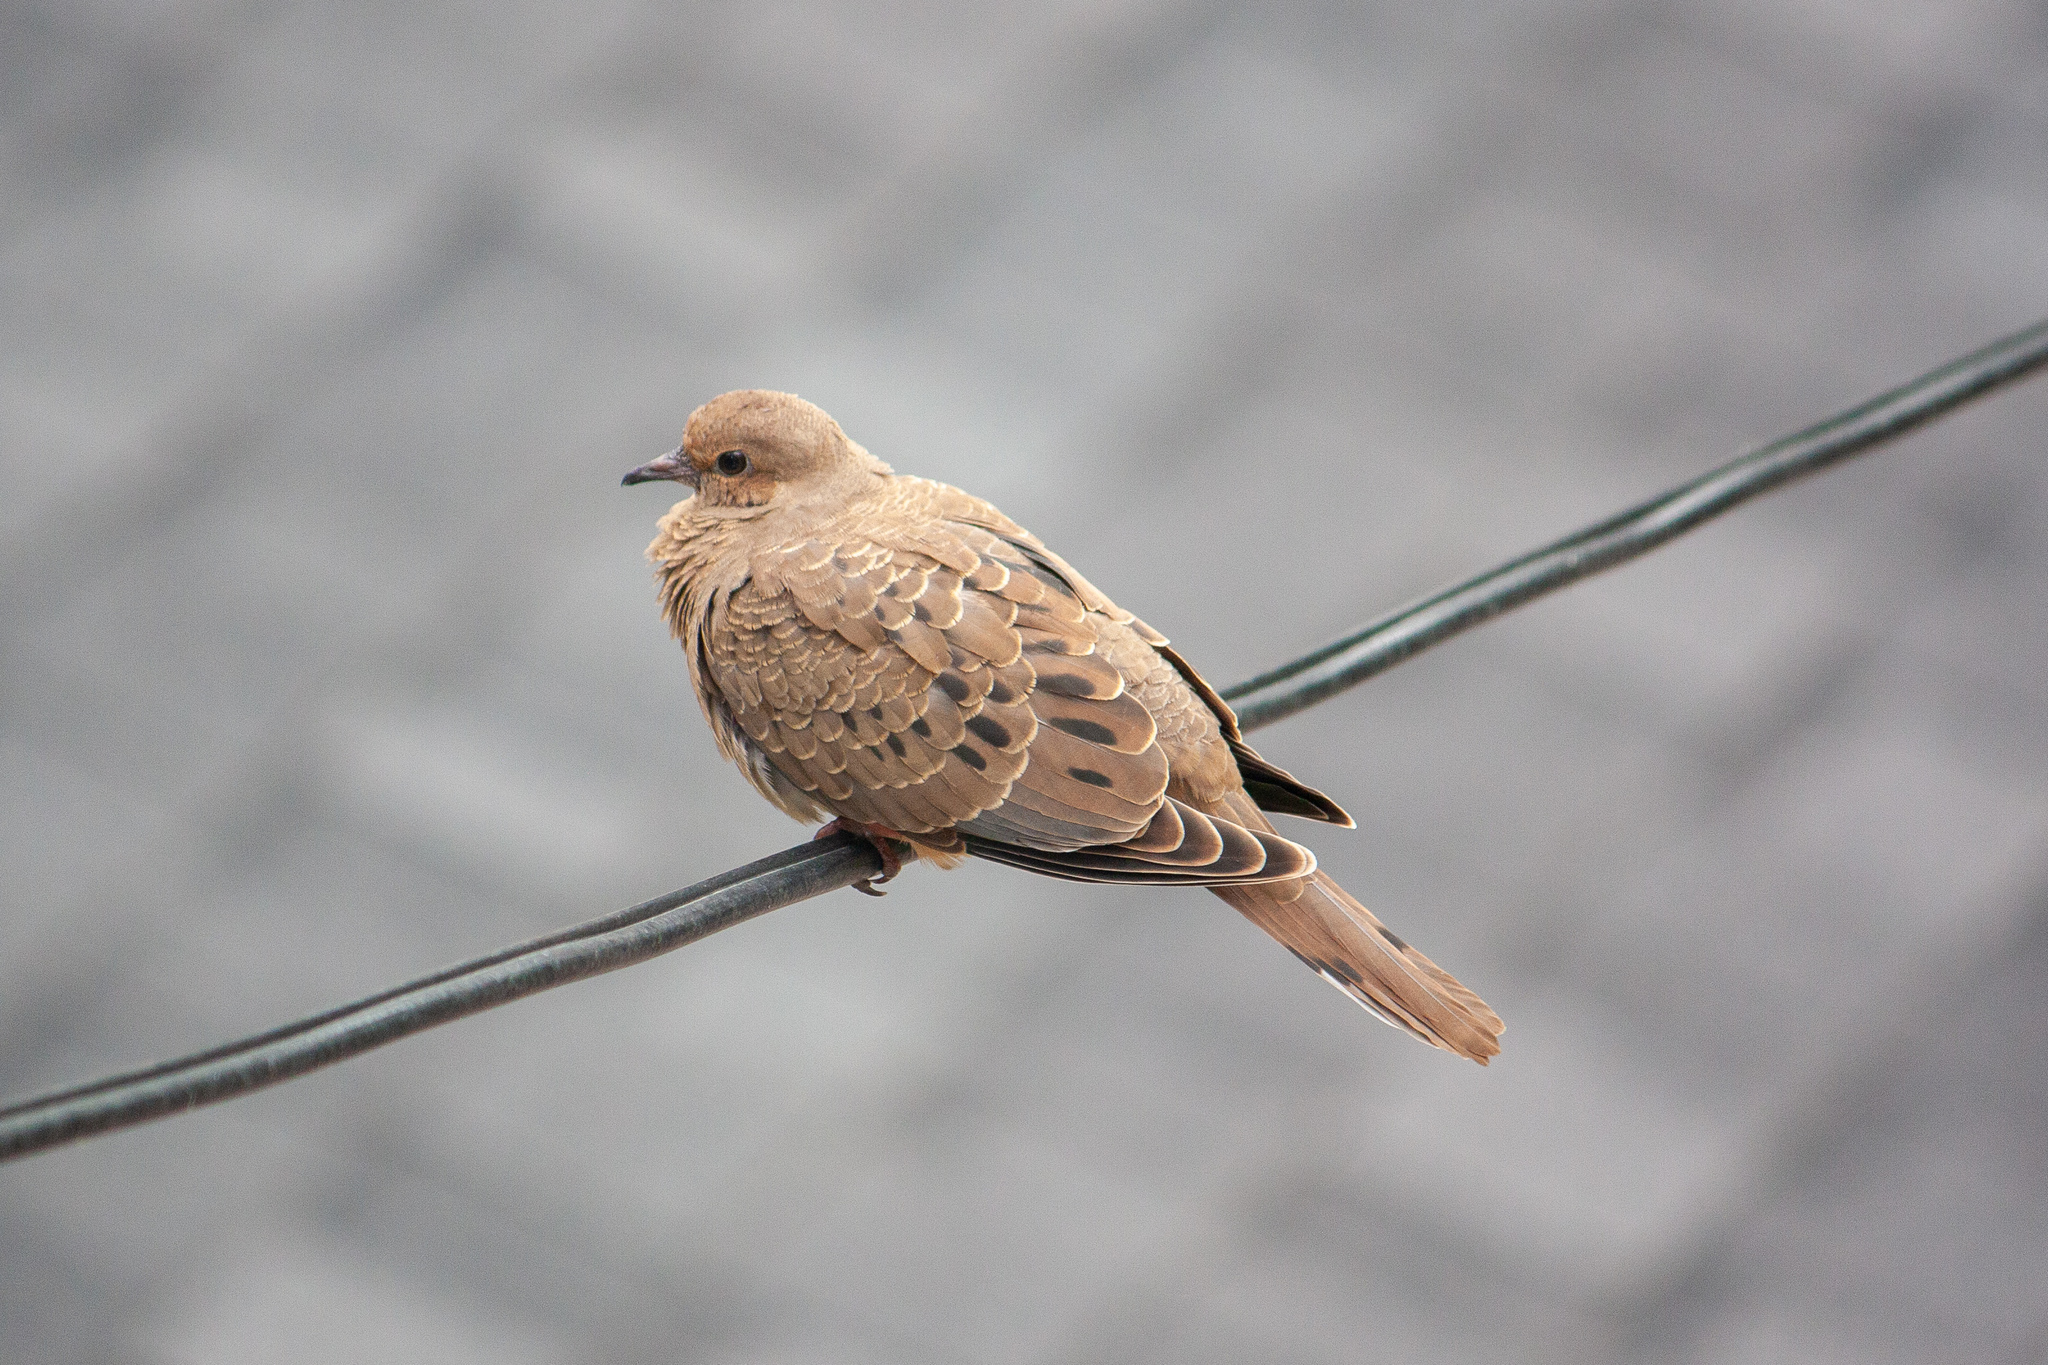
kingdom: Animalia
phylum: Chordata
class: Aves
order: Columbiformes
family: Columbidae
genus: Zenaida
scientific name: Zenaida macroura
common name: Mourning dove
